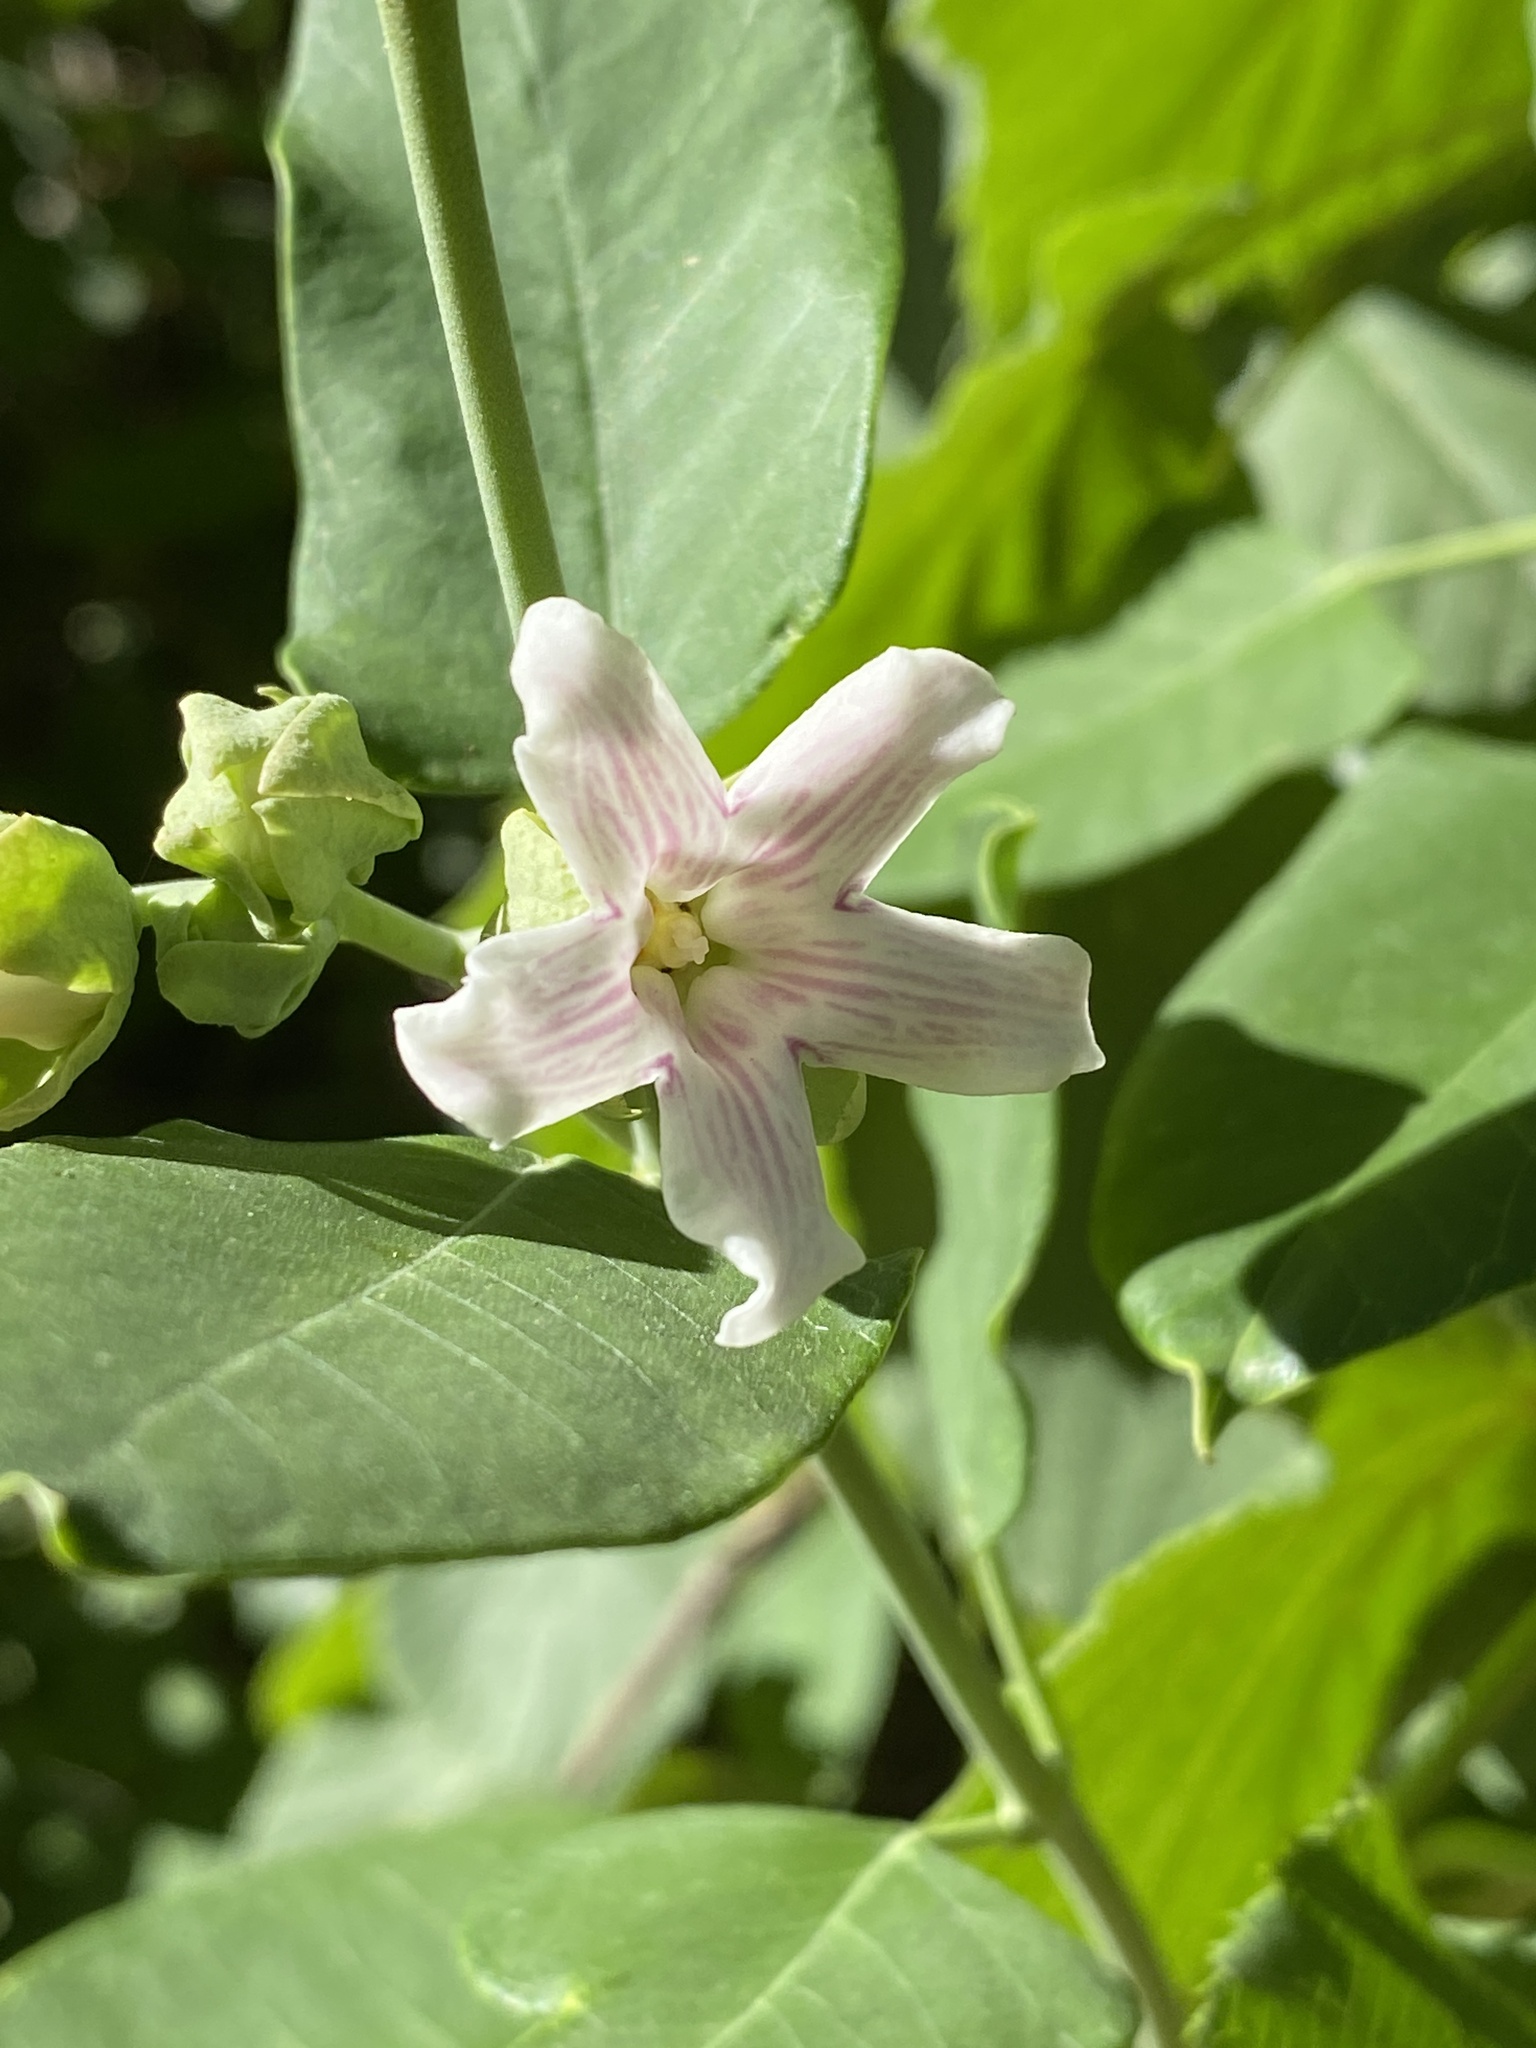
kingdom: Plantae
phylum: Tracheophyta
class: Magnoliopsida
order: Gentianales
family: Apocynaceae
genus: Araujia
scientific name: Araujia sericifera
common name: White bladderflower
